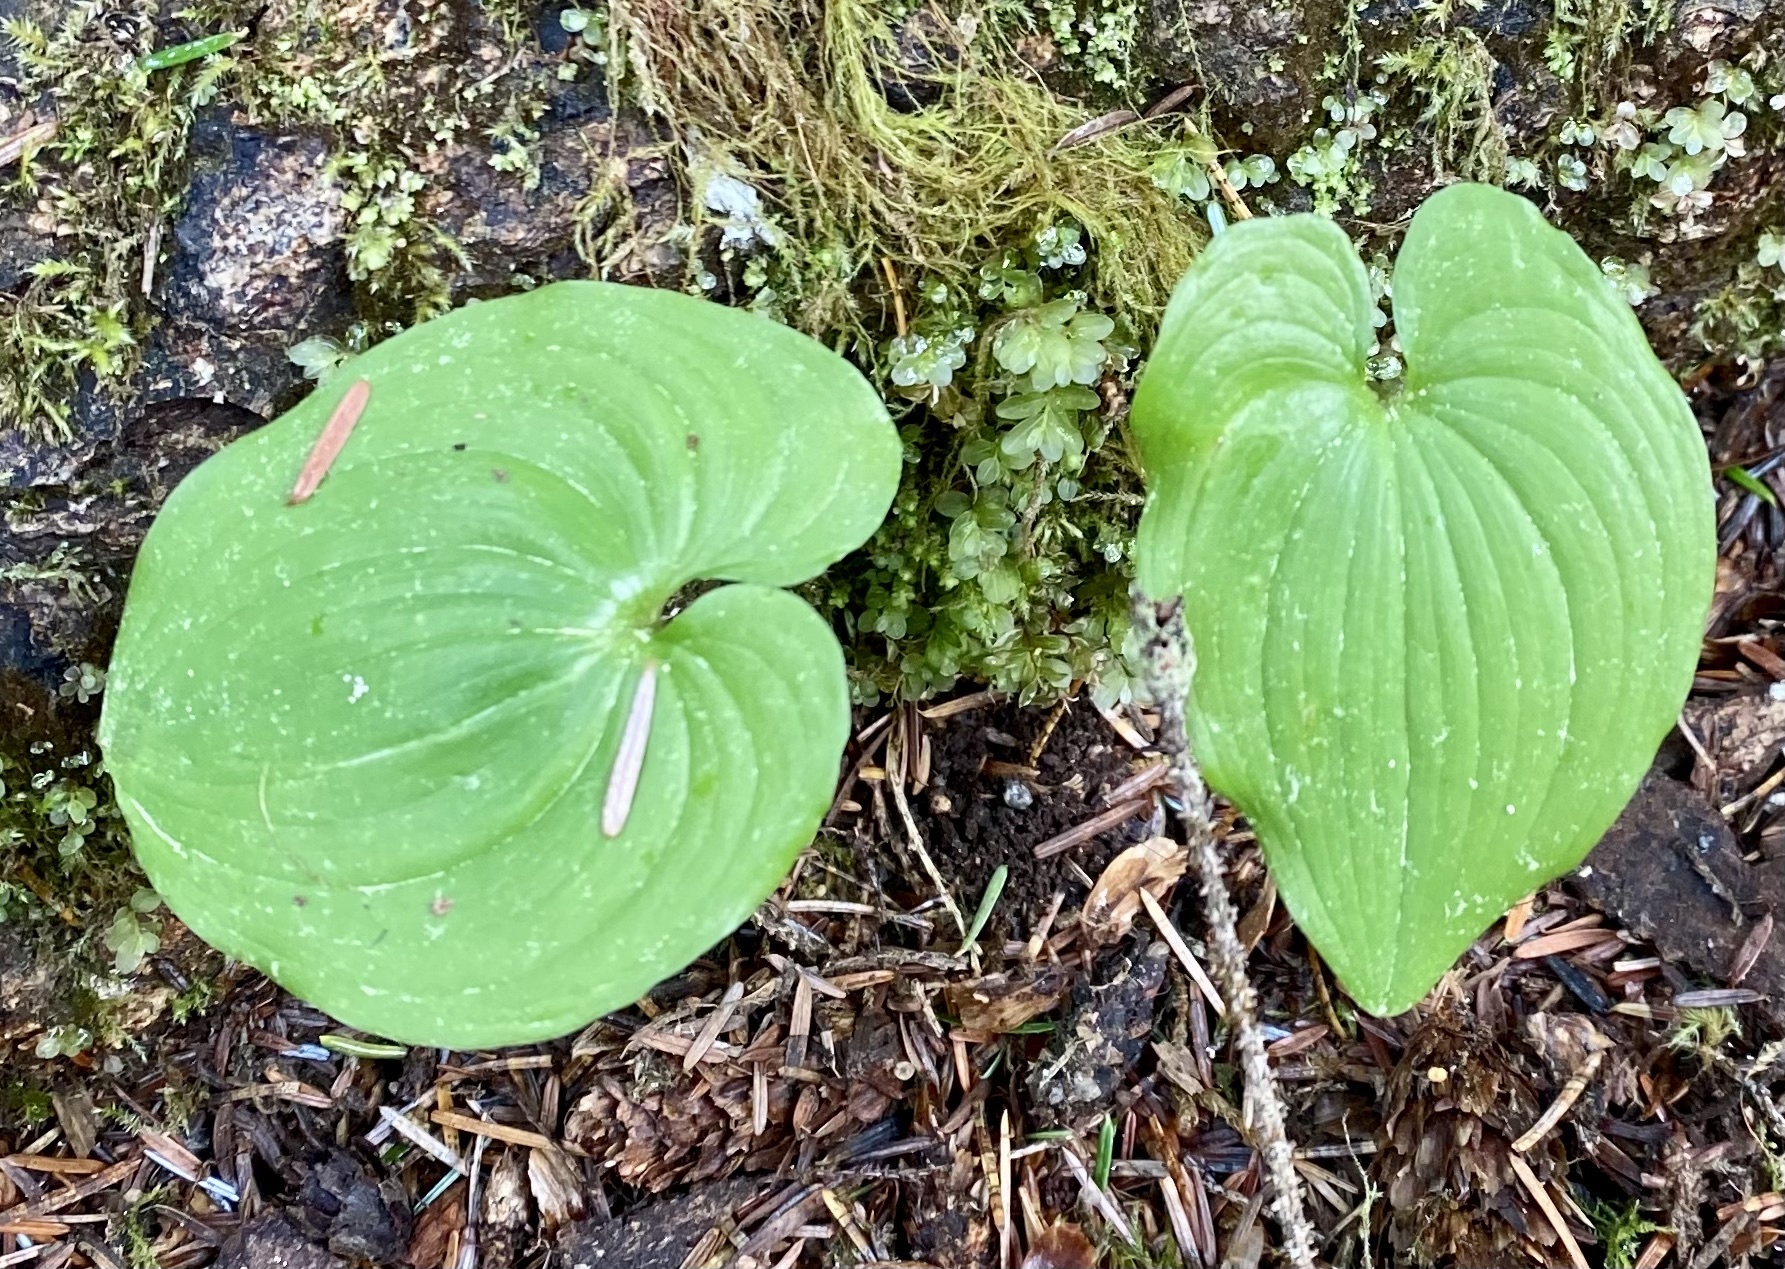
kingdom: Plantae
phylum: Tracheophyta
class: Liliopsida
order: Asparagales
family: Asparagaceae
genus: Maianthemum
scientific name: Maianthemum dilatatum
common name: False lily-of-the-valley
